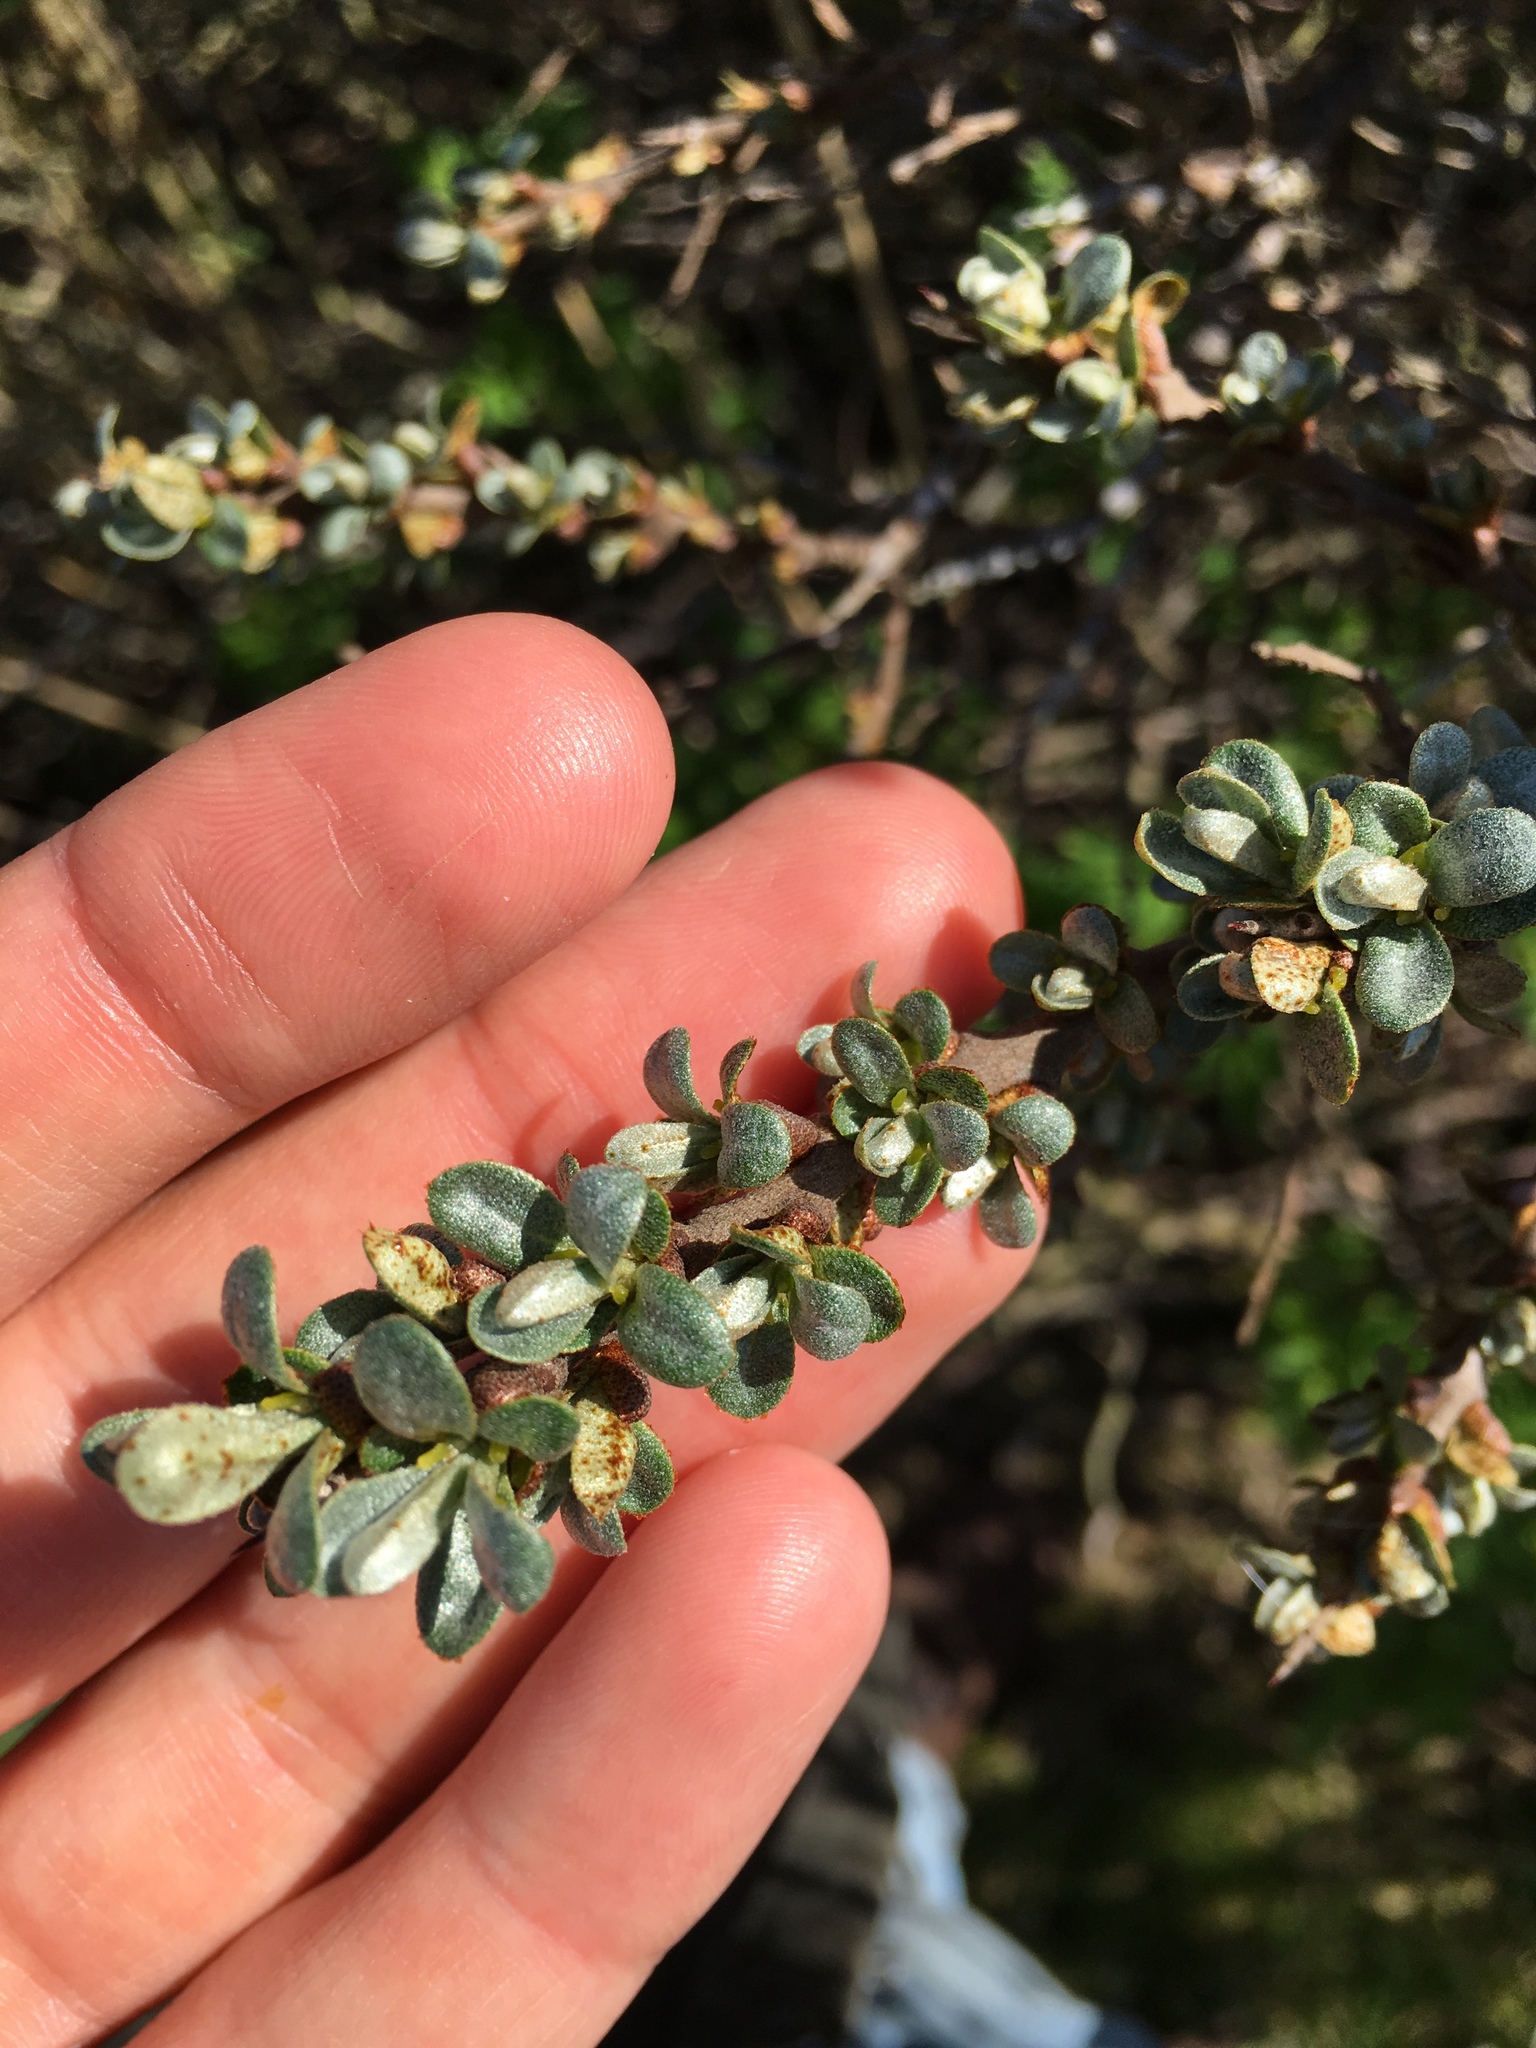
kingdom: Plantae
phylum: Tracheophyta
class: Magnoliopsida
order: Rosales
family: Elaeagnaceae
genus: Hippophae
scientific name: Hippophae rhamnoides
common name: Sea-buckthorn
